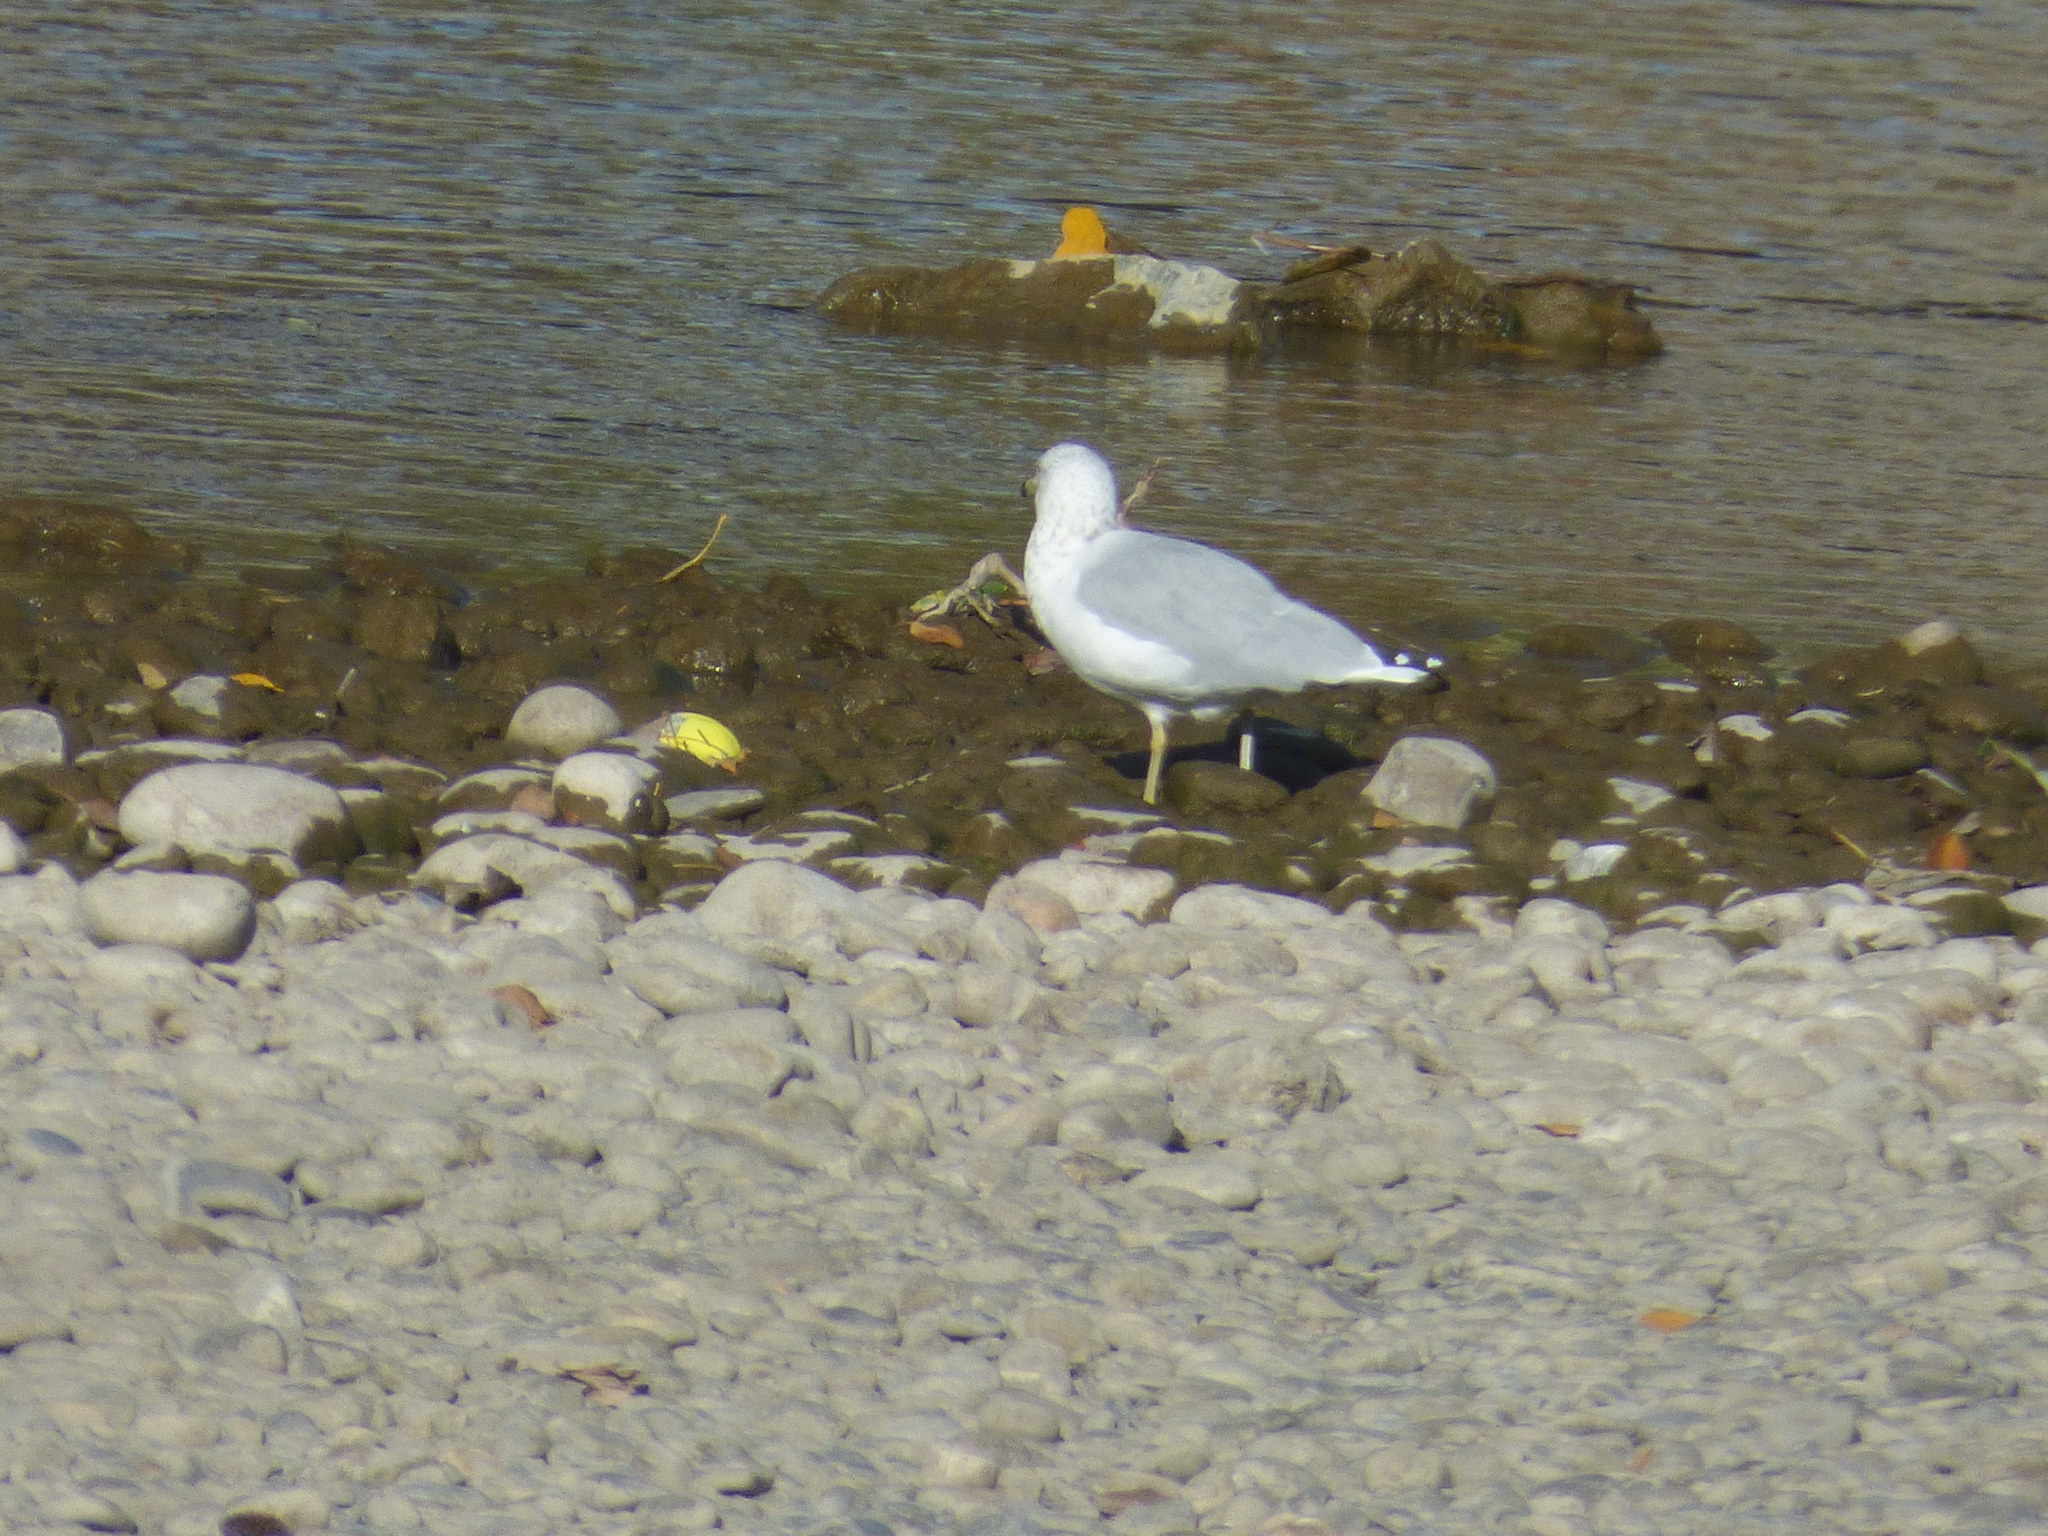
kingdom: Animalia
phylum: Chordata
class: Aves
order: Charadriiformes
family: Laridae
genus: Larus
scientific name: Larus delawarensis
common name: Ring-billed gull
